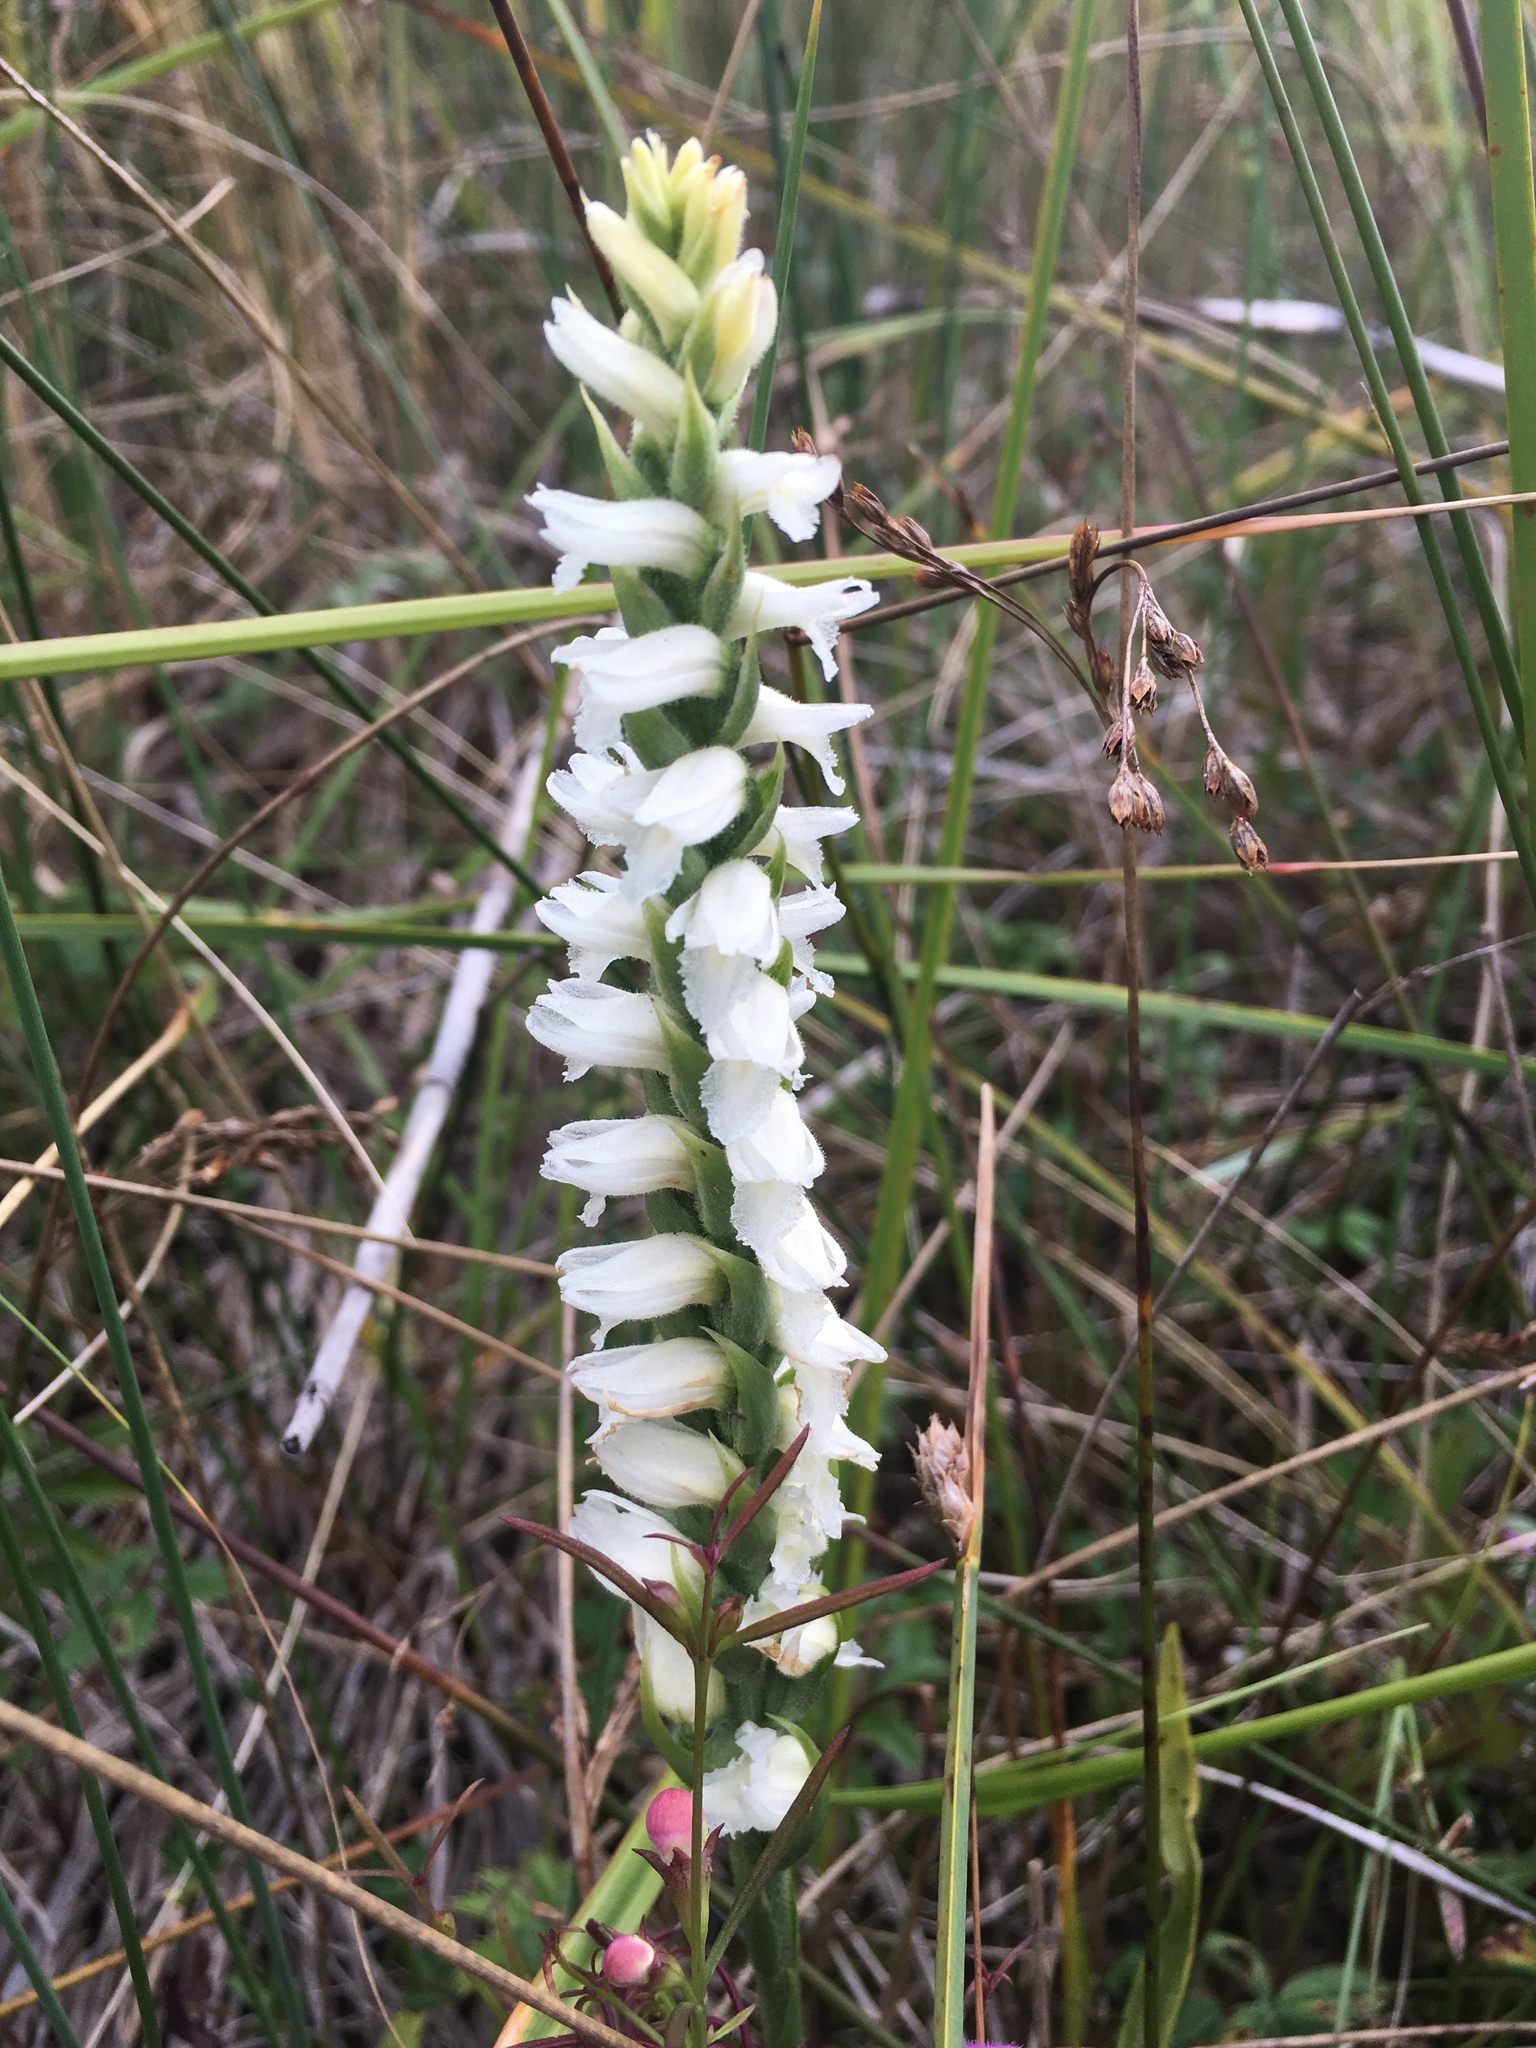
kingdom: Plantae
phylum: Tracheophyta
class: Liliopsida
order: Asparagales
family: Orchidaceae
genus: Spiranthes
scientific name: Spiranthes incurva
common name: Sphinx ladies'-tresses
